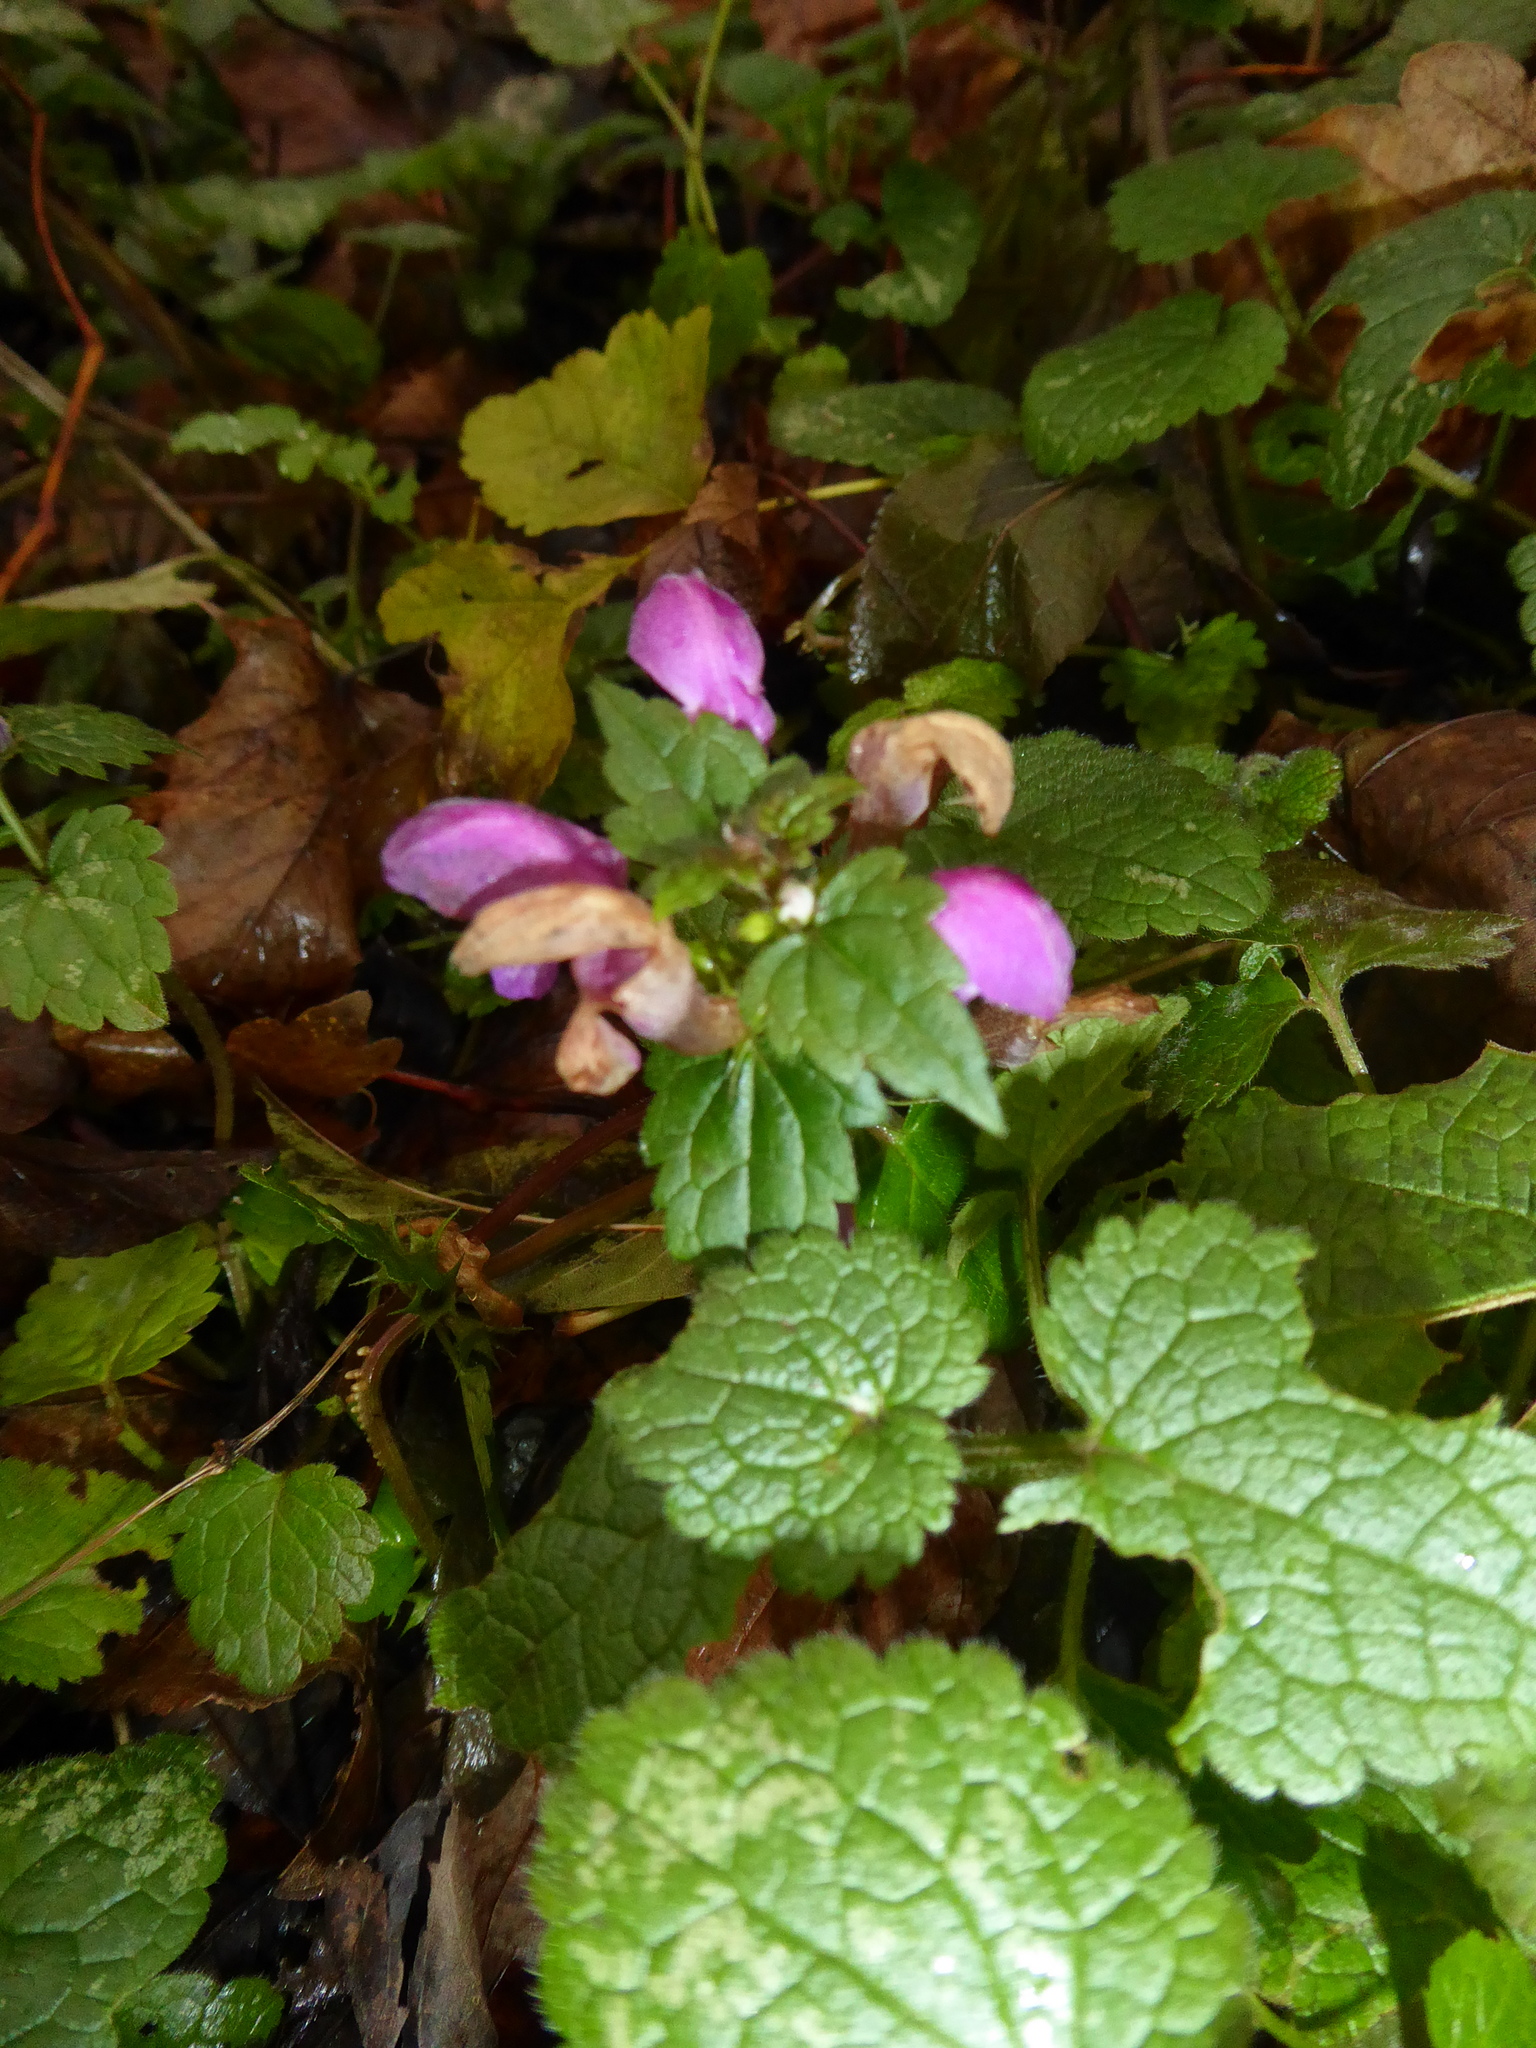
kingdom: Plantae
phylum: Tracheophyta
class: Magnoliopsida
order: Lamiales
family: Lamiaceae
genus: Lamium
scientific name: Lamium maculatum
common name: Spotted dead-nettle
